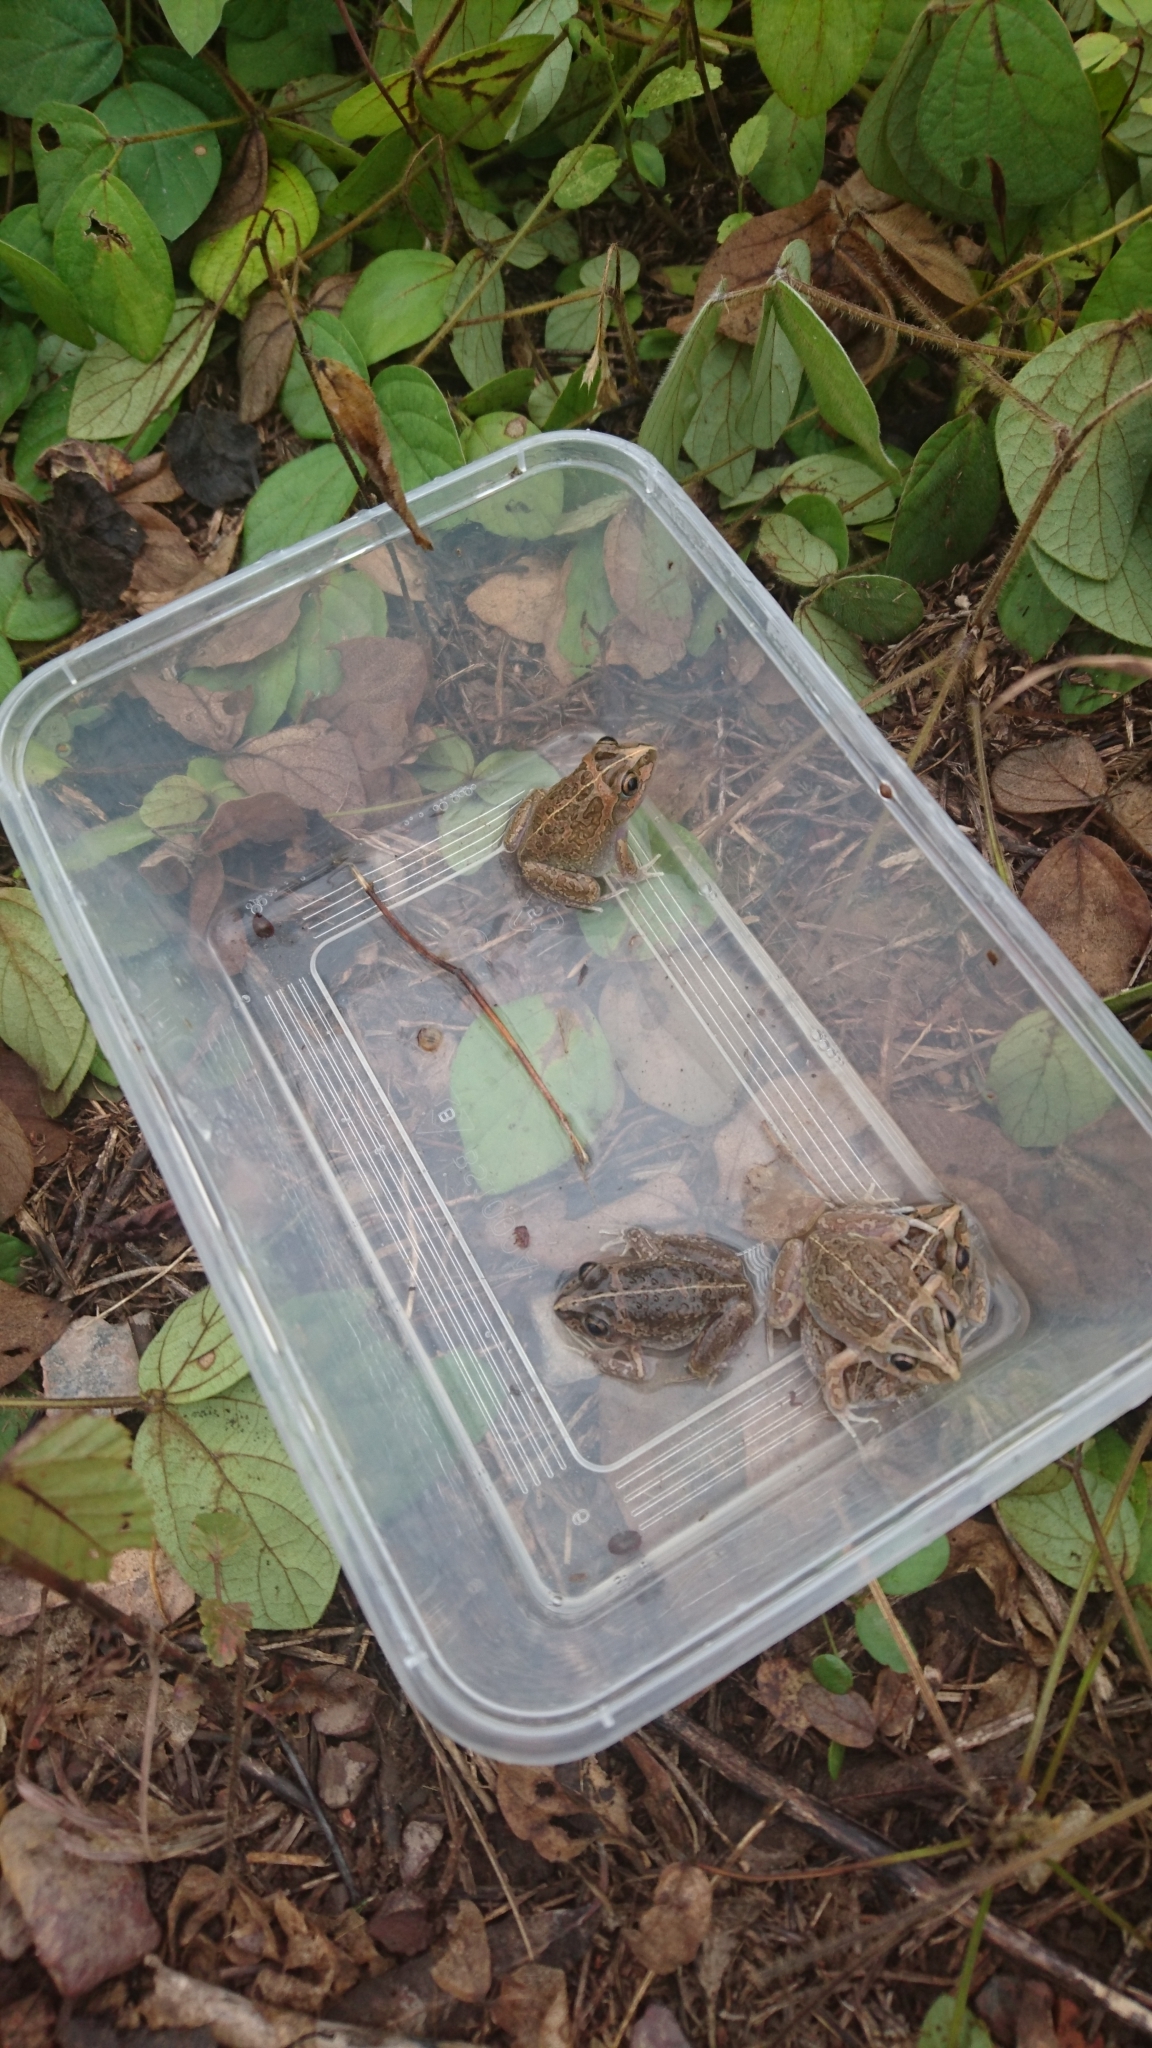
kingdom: Animalia
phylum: Chordata
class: Amphibia
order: Anura
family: Pelodryadidae
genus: Ranoidea
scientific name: Ranoidea longipes
